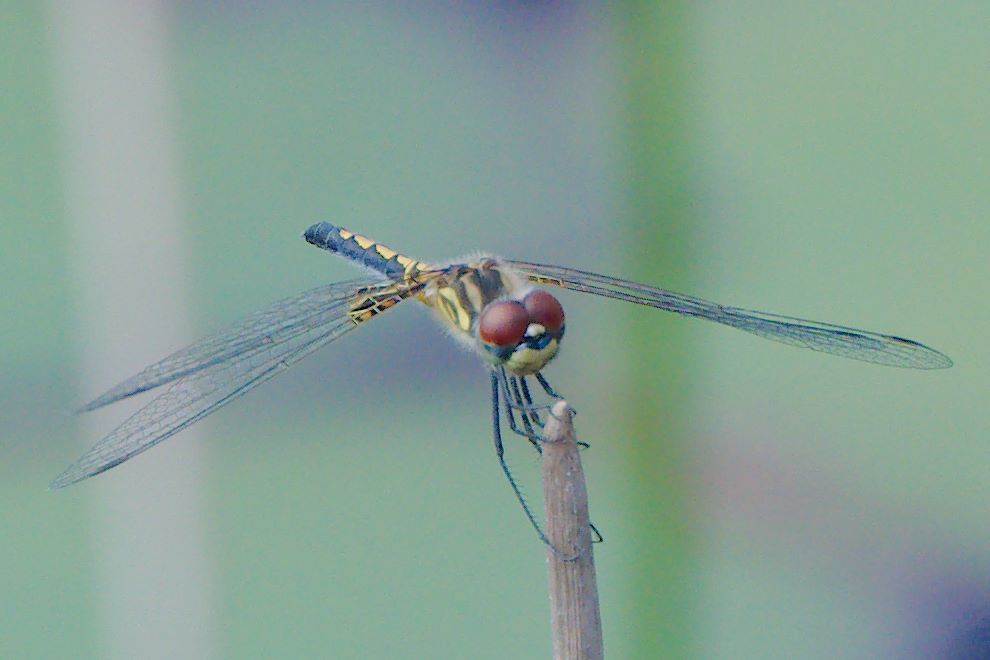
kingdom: Animalia
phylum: Arthropoda
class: Insecta
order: Odonata
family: Libellulidae
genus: Celithemis
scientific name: Celithemis ornata
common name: Ornate pennant
